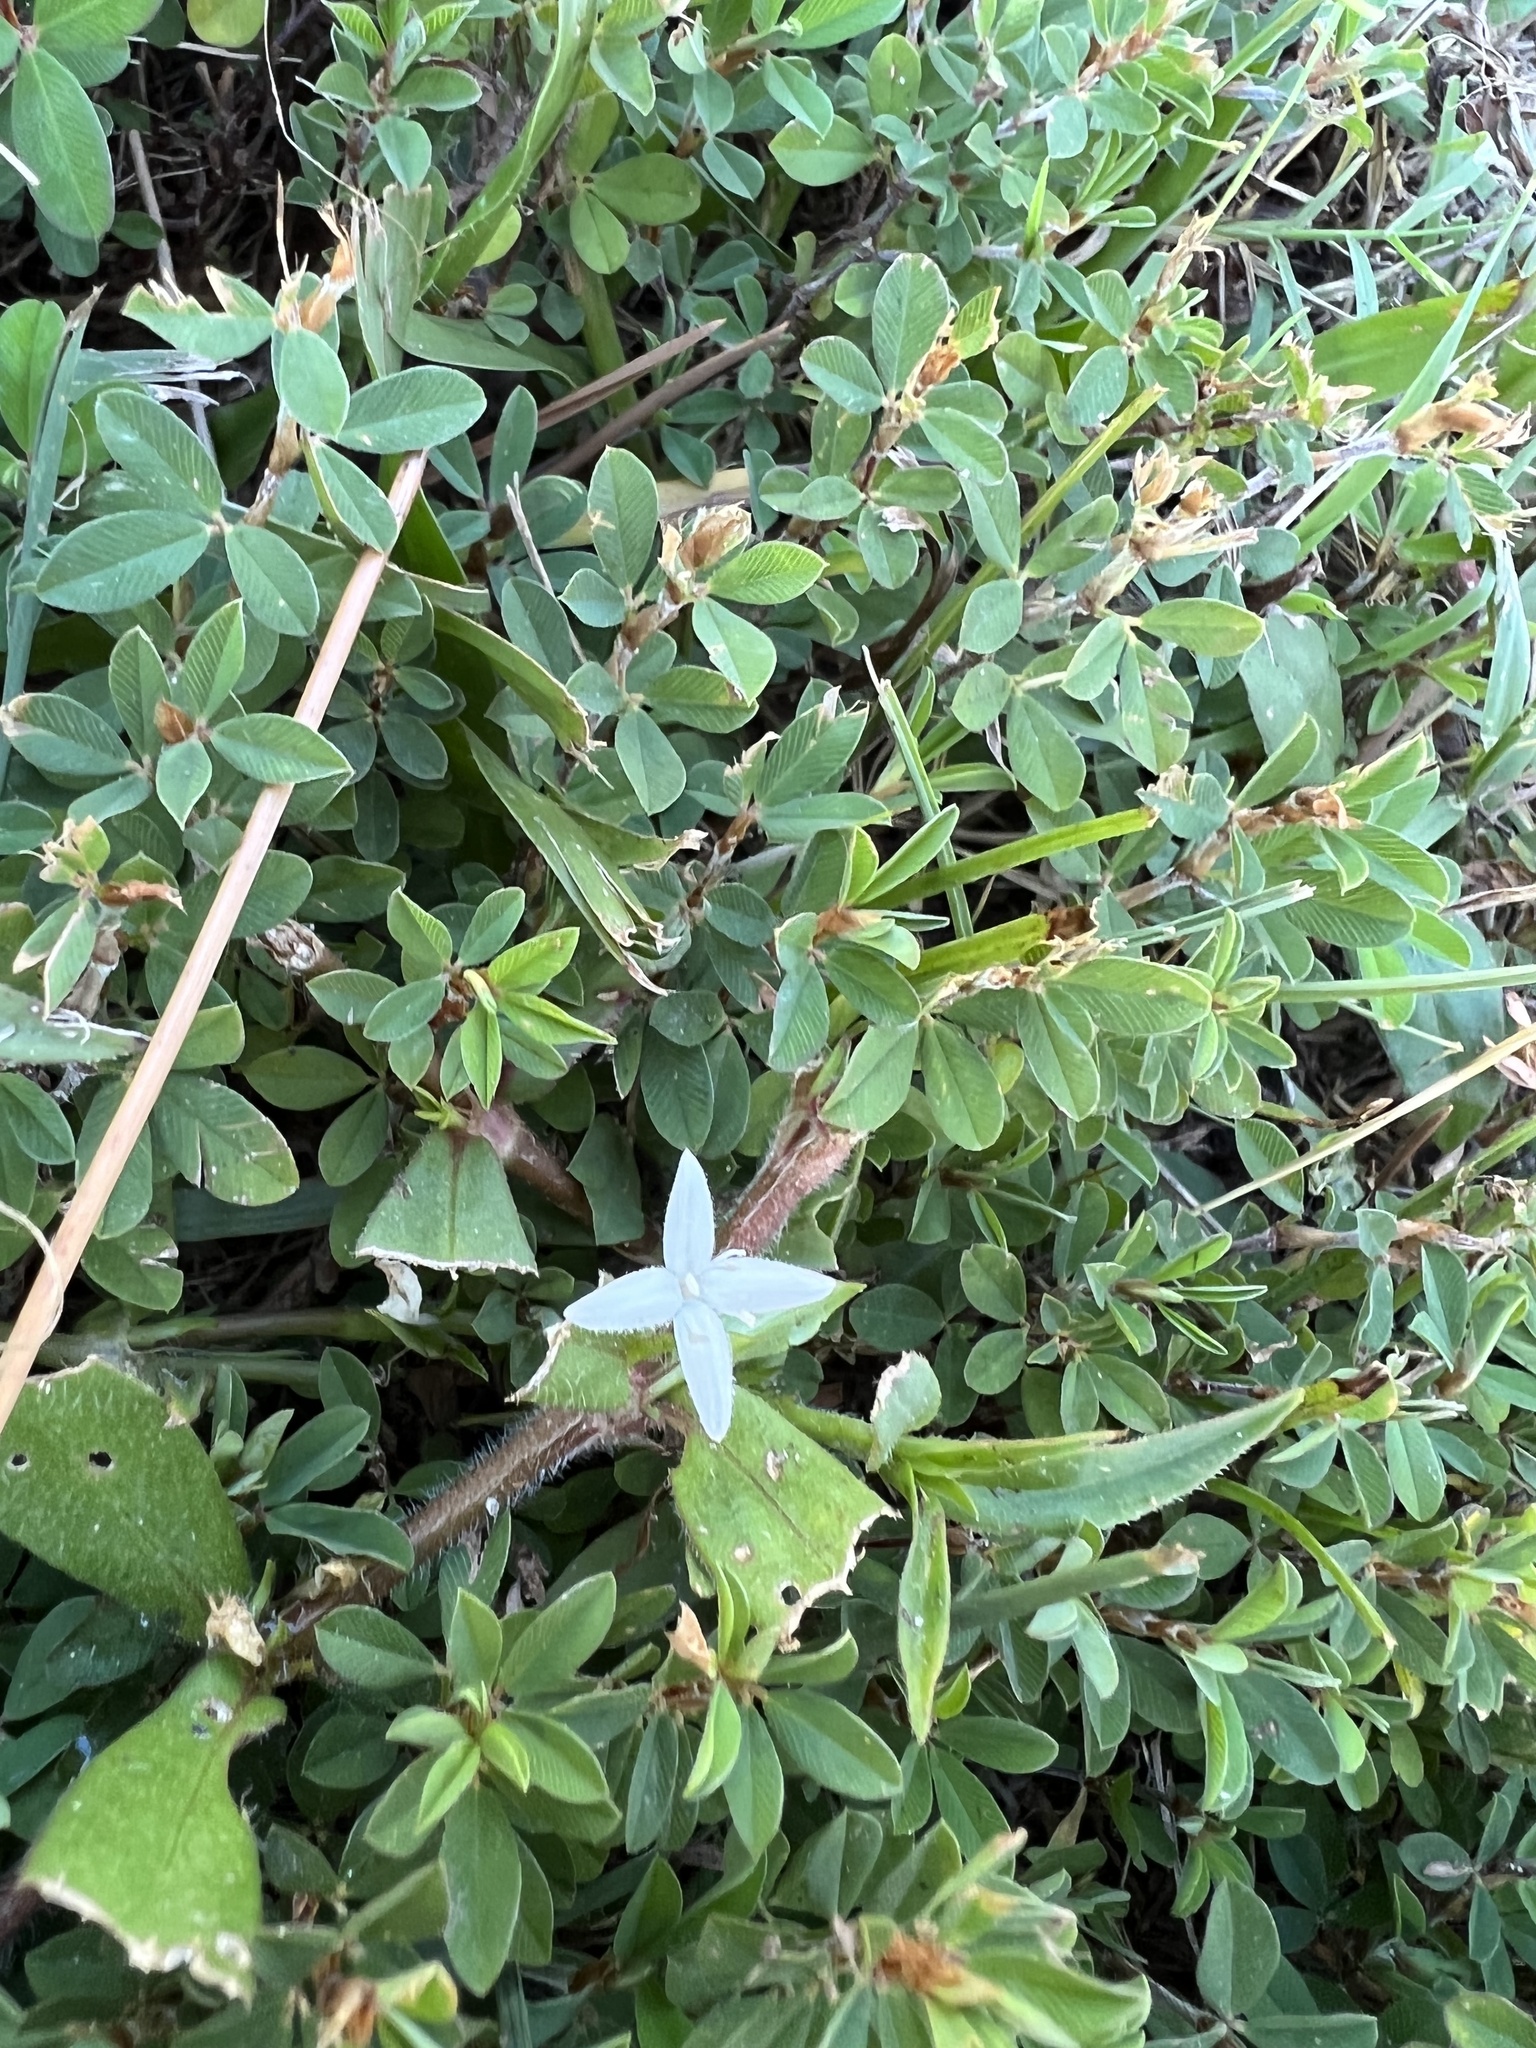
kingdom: Plantae
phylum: Tracheophyta
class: Magnoliopsida
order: Gentianales
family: Rubiaceae
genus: Diodia
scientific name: Diodia virginiana
